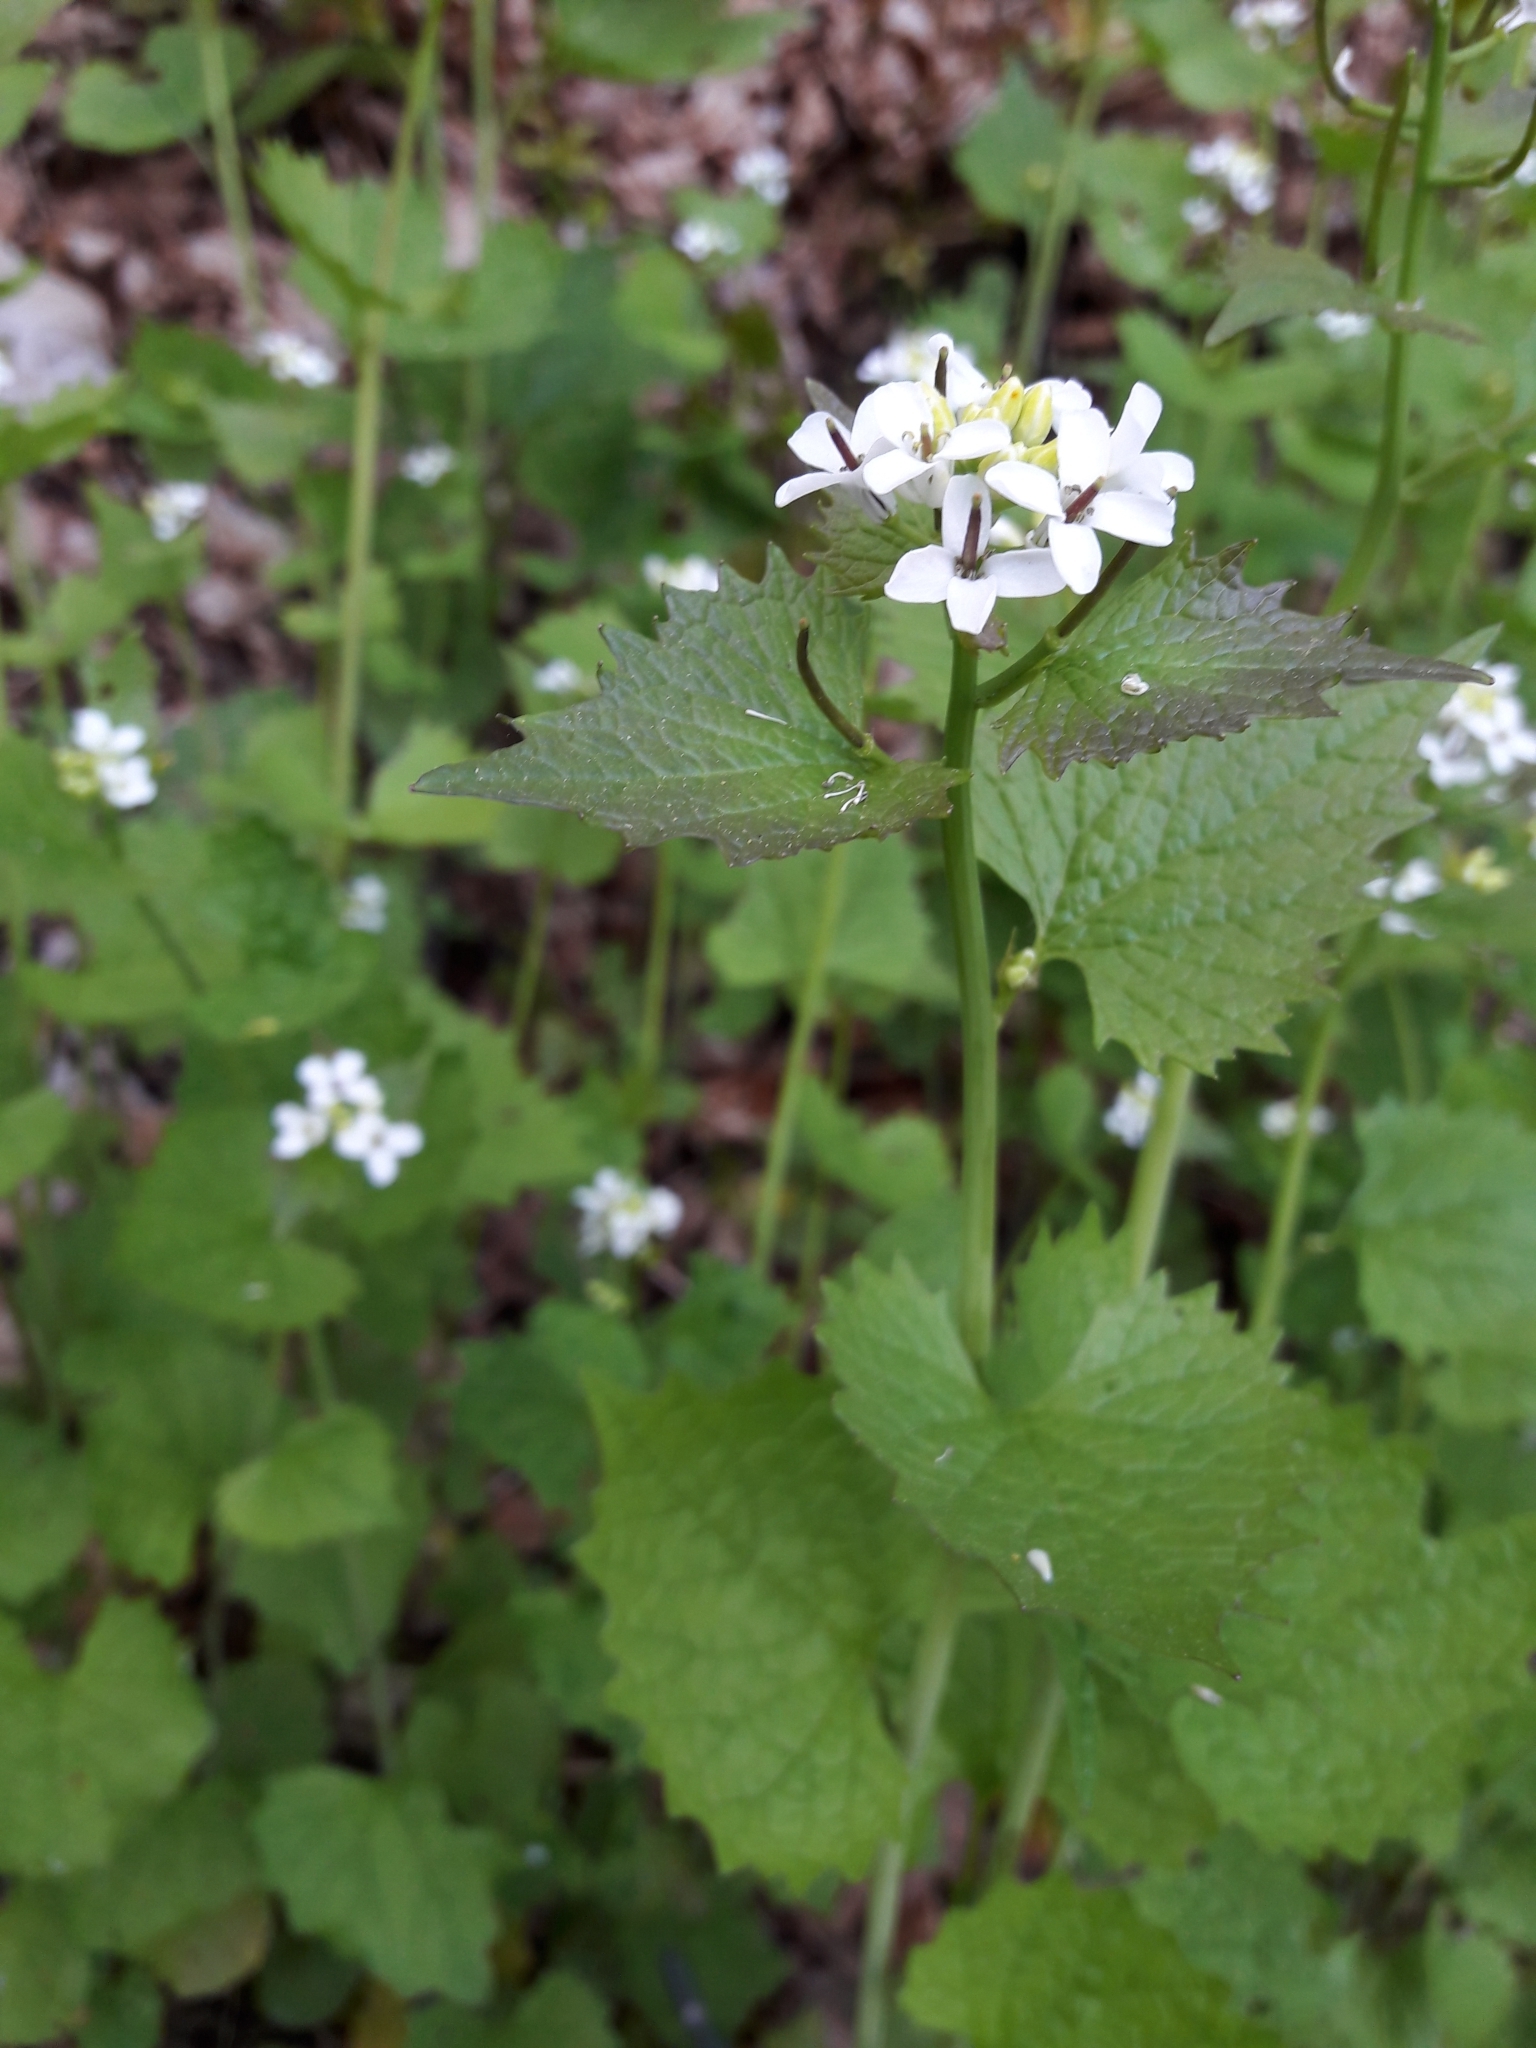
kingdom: Plantae
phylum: Tracheophyta
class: Magnoliopsida
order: Brassicales
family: Brassicaceae
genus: Alliaria
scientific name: Alliaria petiolata
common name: Garlic mustard
